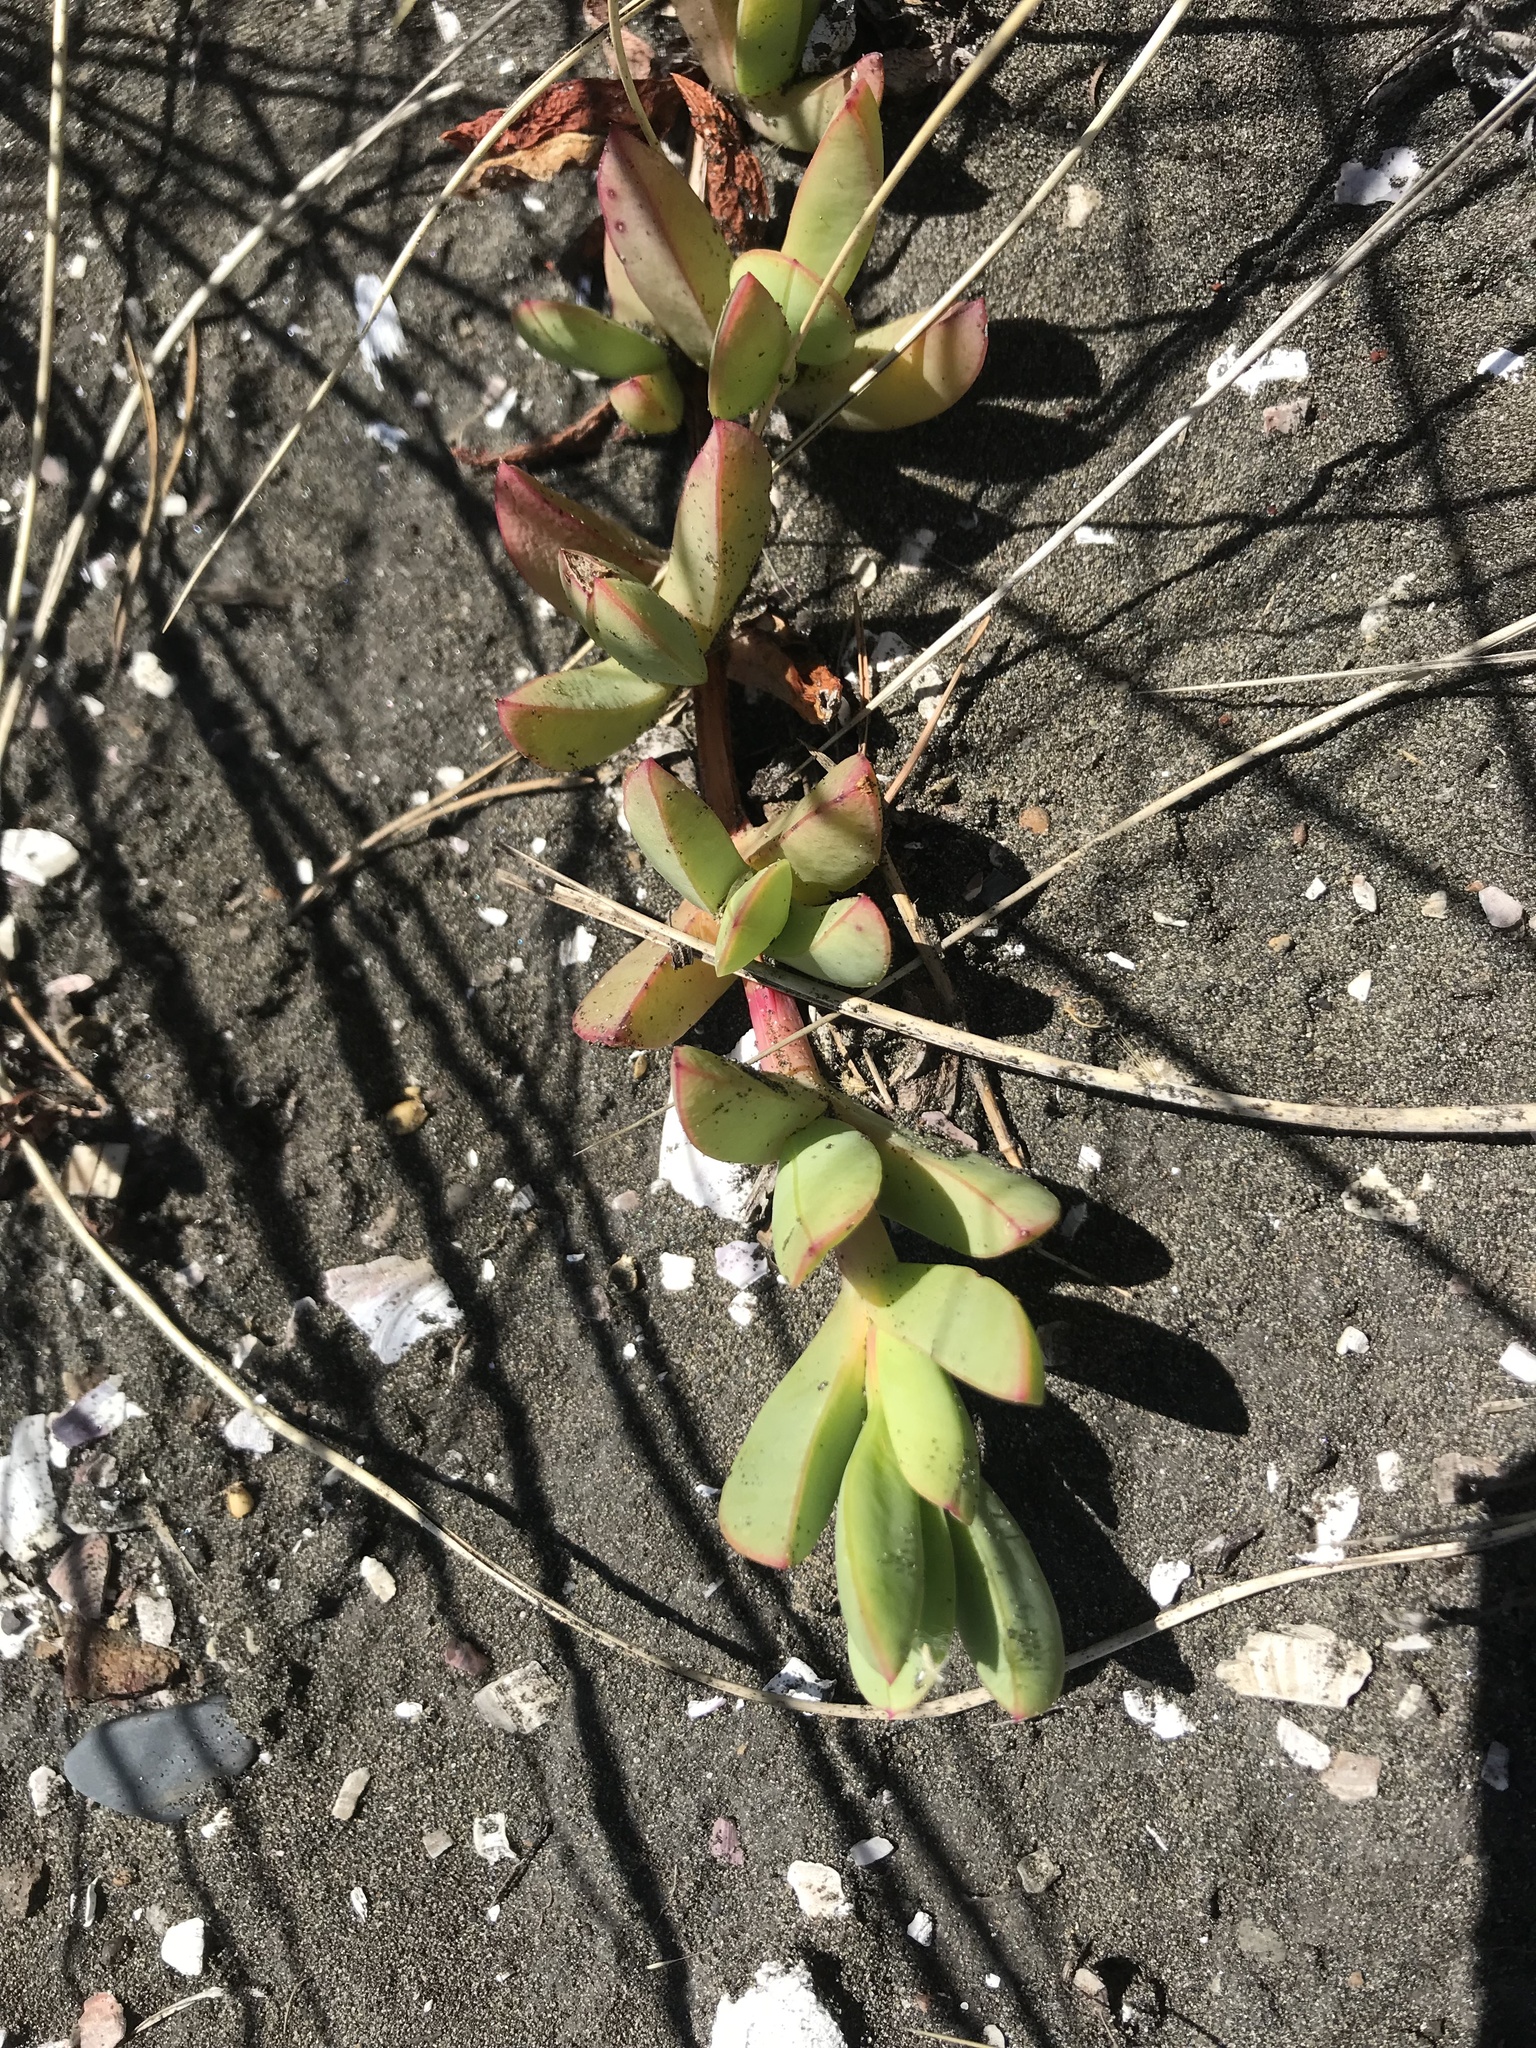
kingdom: Plantae
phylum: Tracheophyta
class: Magnoliopsida
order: Caryophyllales
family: Aizoaceae
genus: Carpobrotus
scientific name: Carpobrotus chilensis
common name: Sea fig
